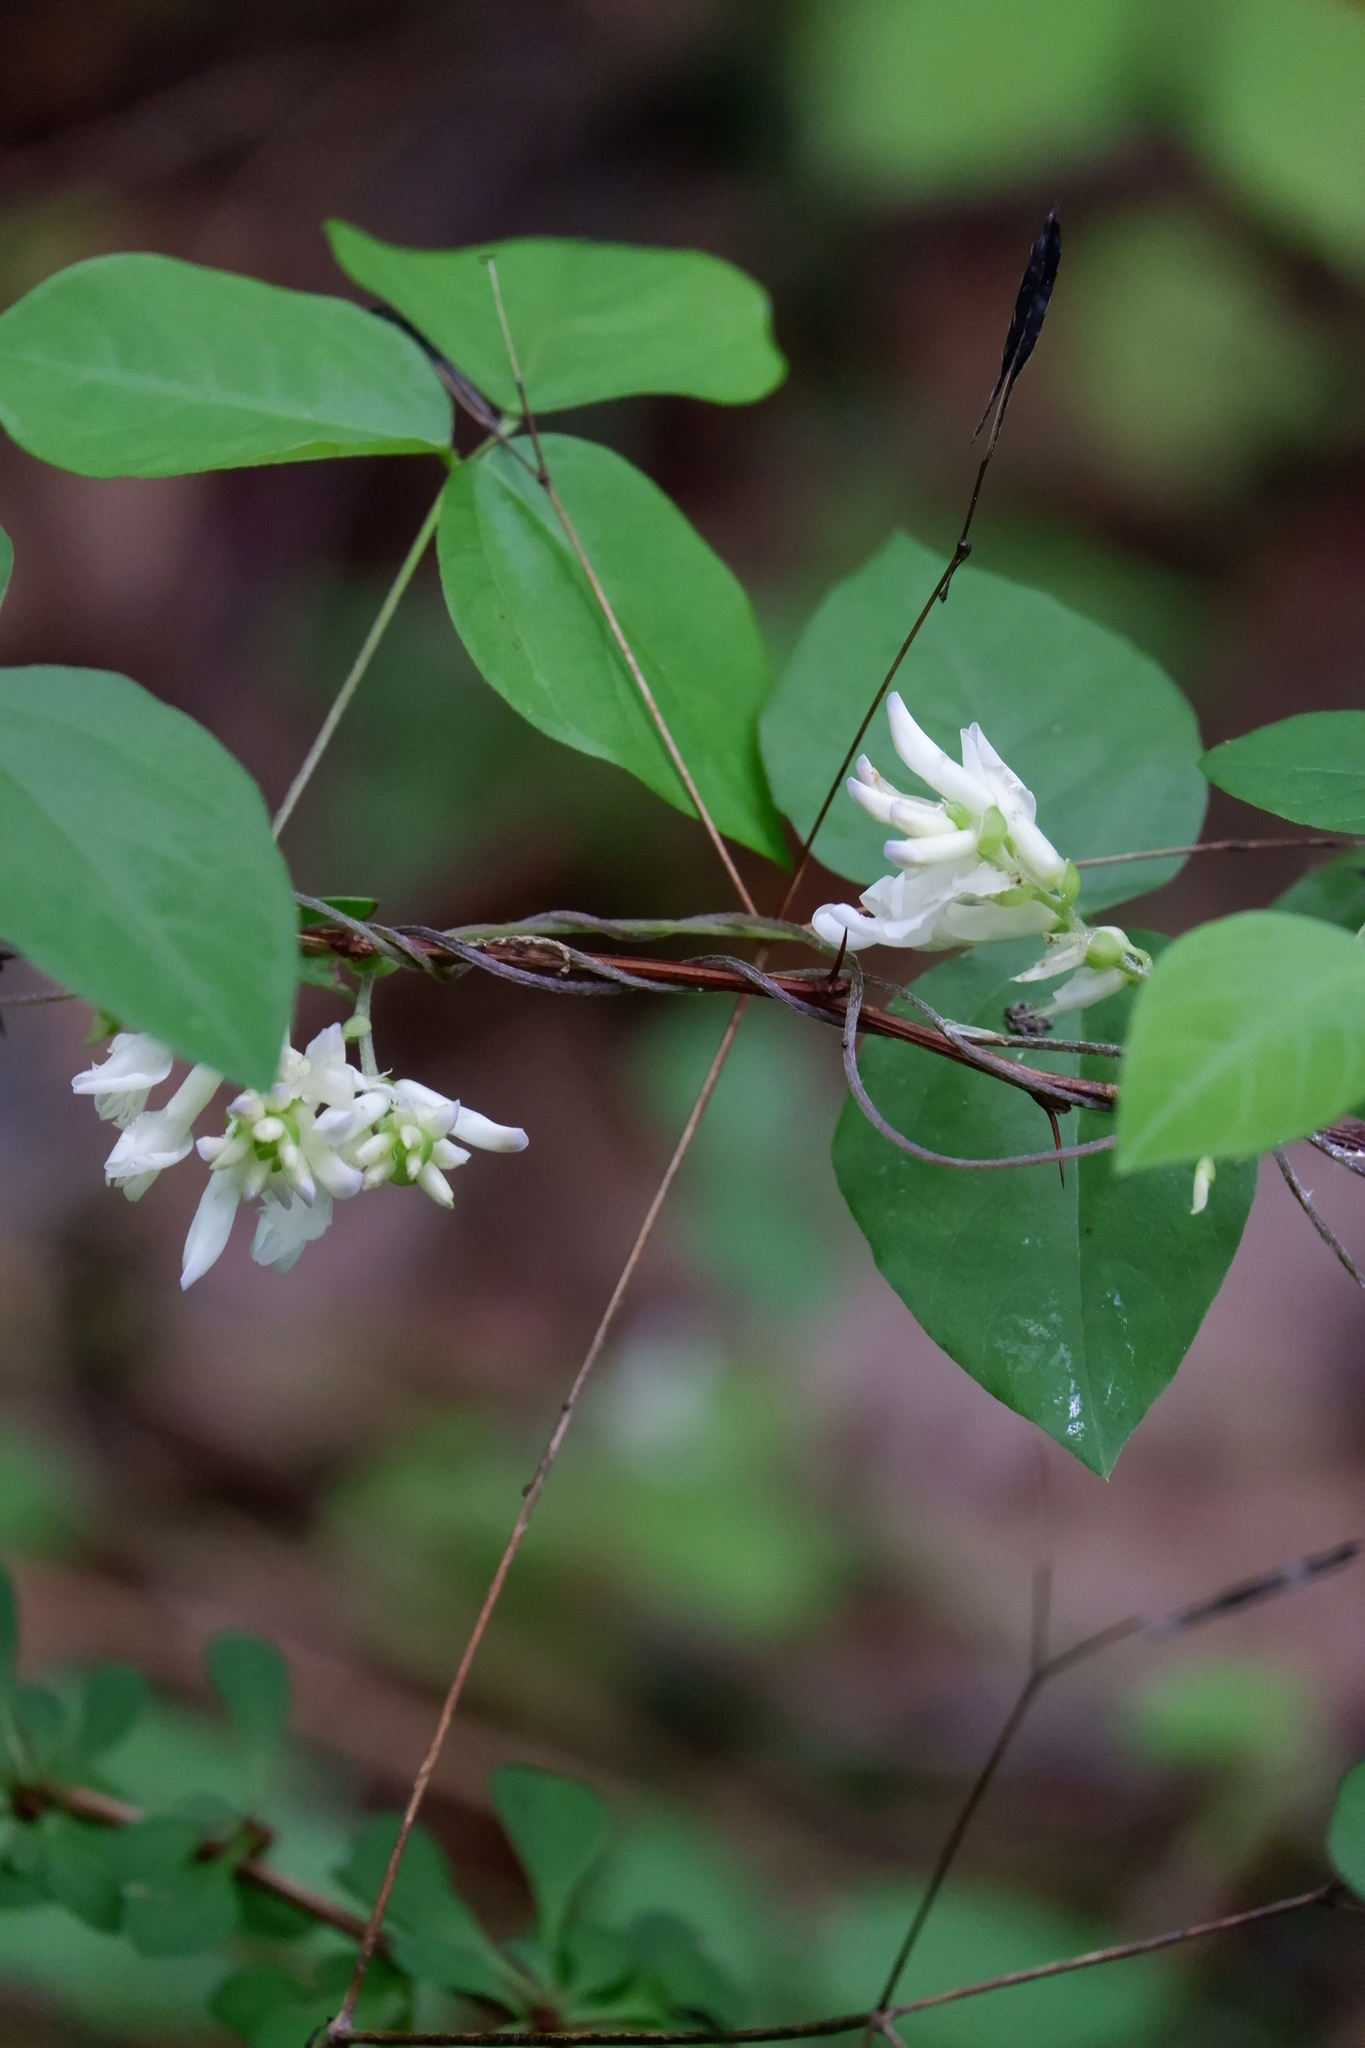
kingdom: Plantae
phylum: Tracheophyta
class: Magnoliopsida
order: Fabales
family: Fabaceae
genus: Amphicarpaea
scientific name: Amphicarpaea bracteata
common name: American hog peanut
